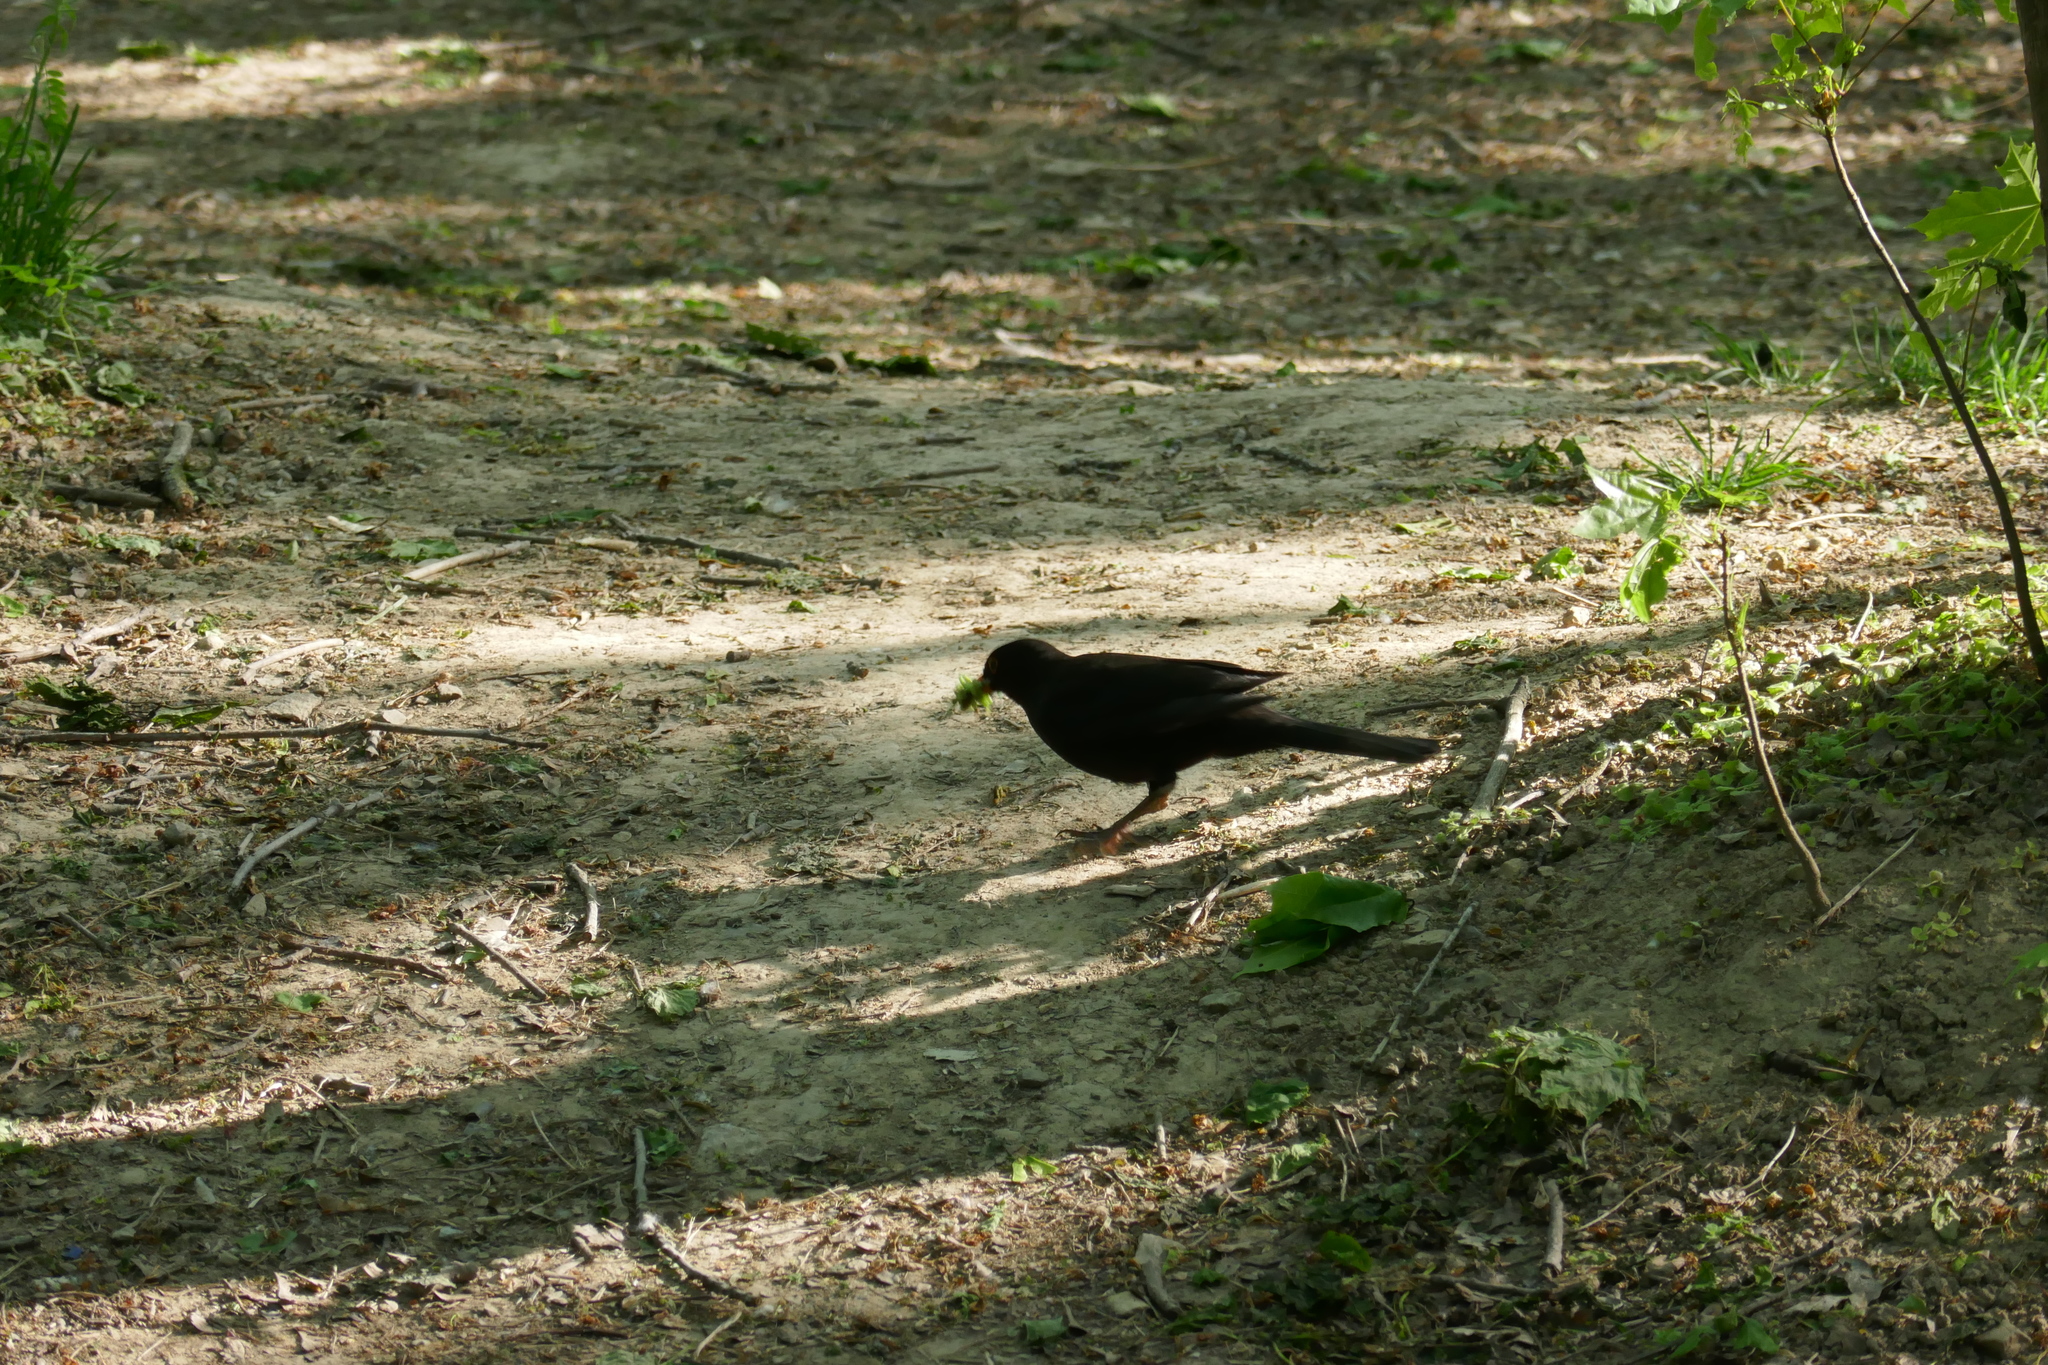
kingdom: Animalia
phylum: Chordata
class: Aves
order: Passeriformes
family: Turdidae
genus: Turdus
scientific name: Turdus merula
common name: Common blackbird
